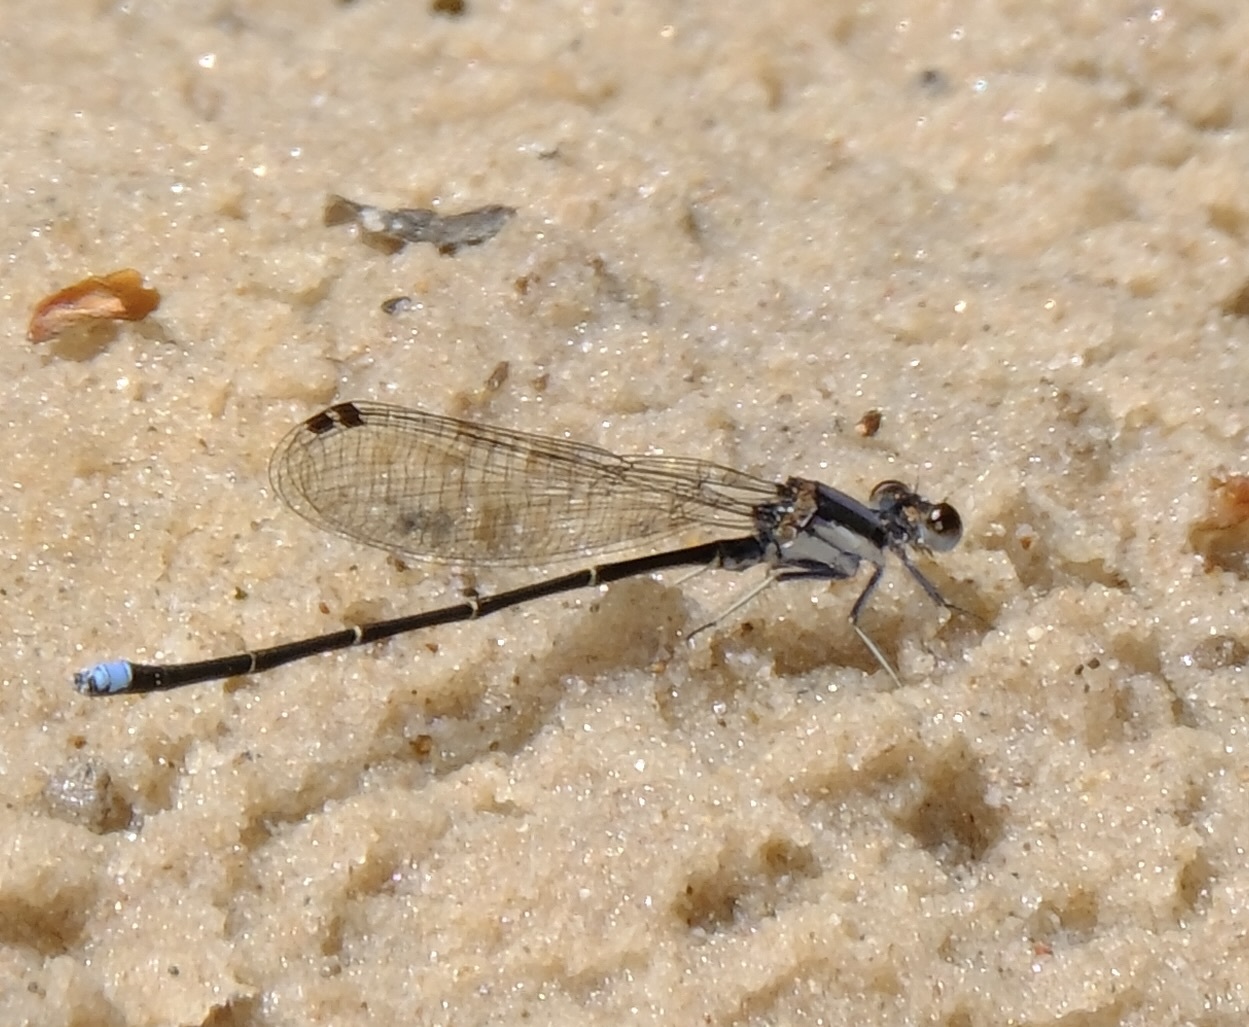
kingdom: Animalia
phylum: Arthropoda
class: Insecta
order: Odonata
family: Coenagrionidae
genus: Argia
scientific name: Argia tibialis
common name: Blue-tipped dancer
